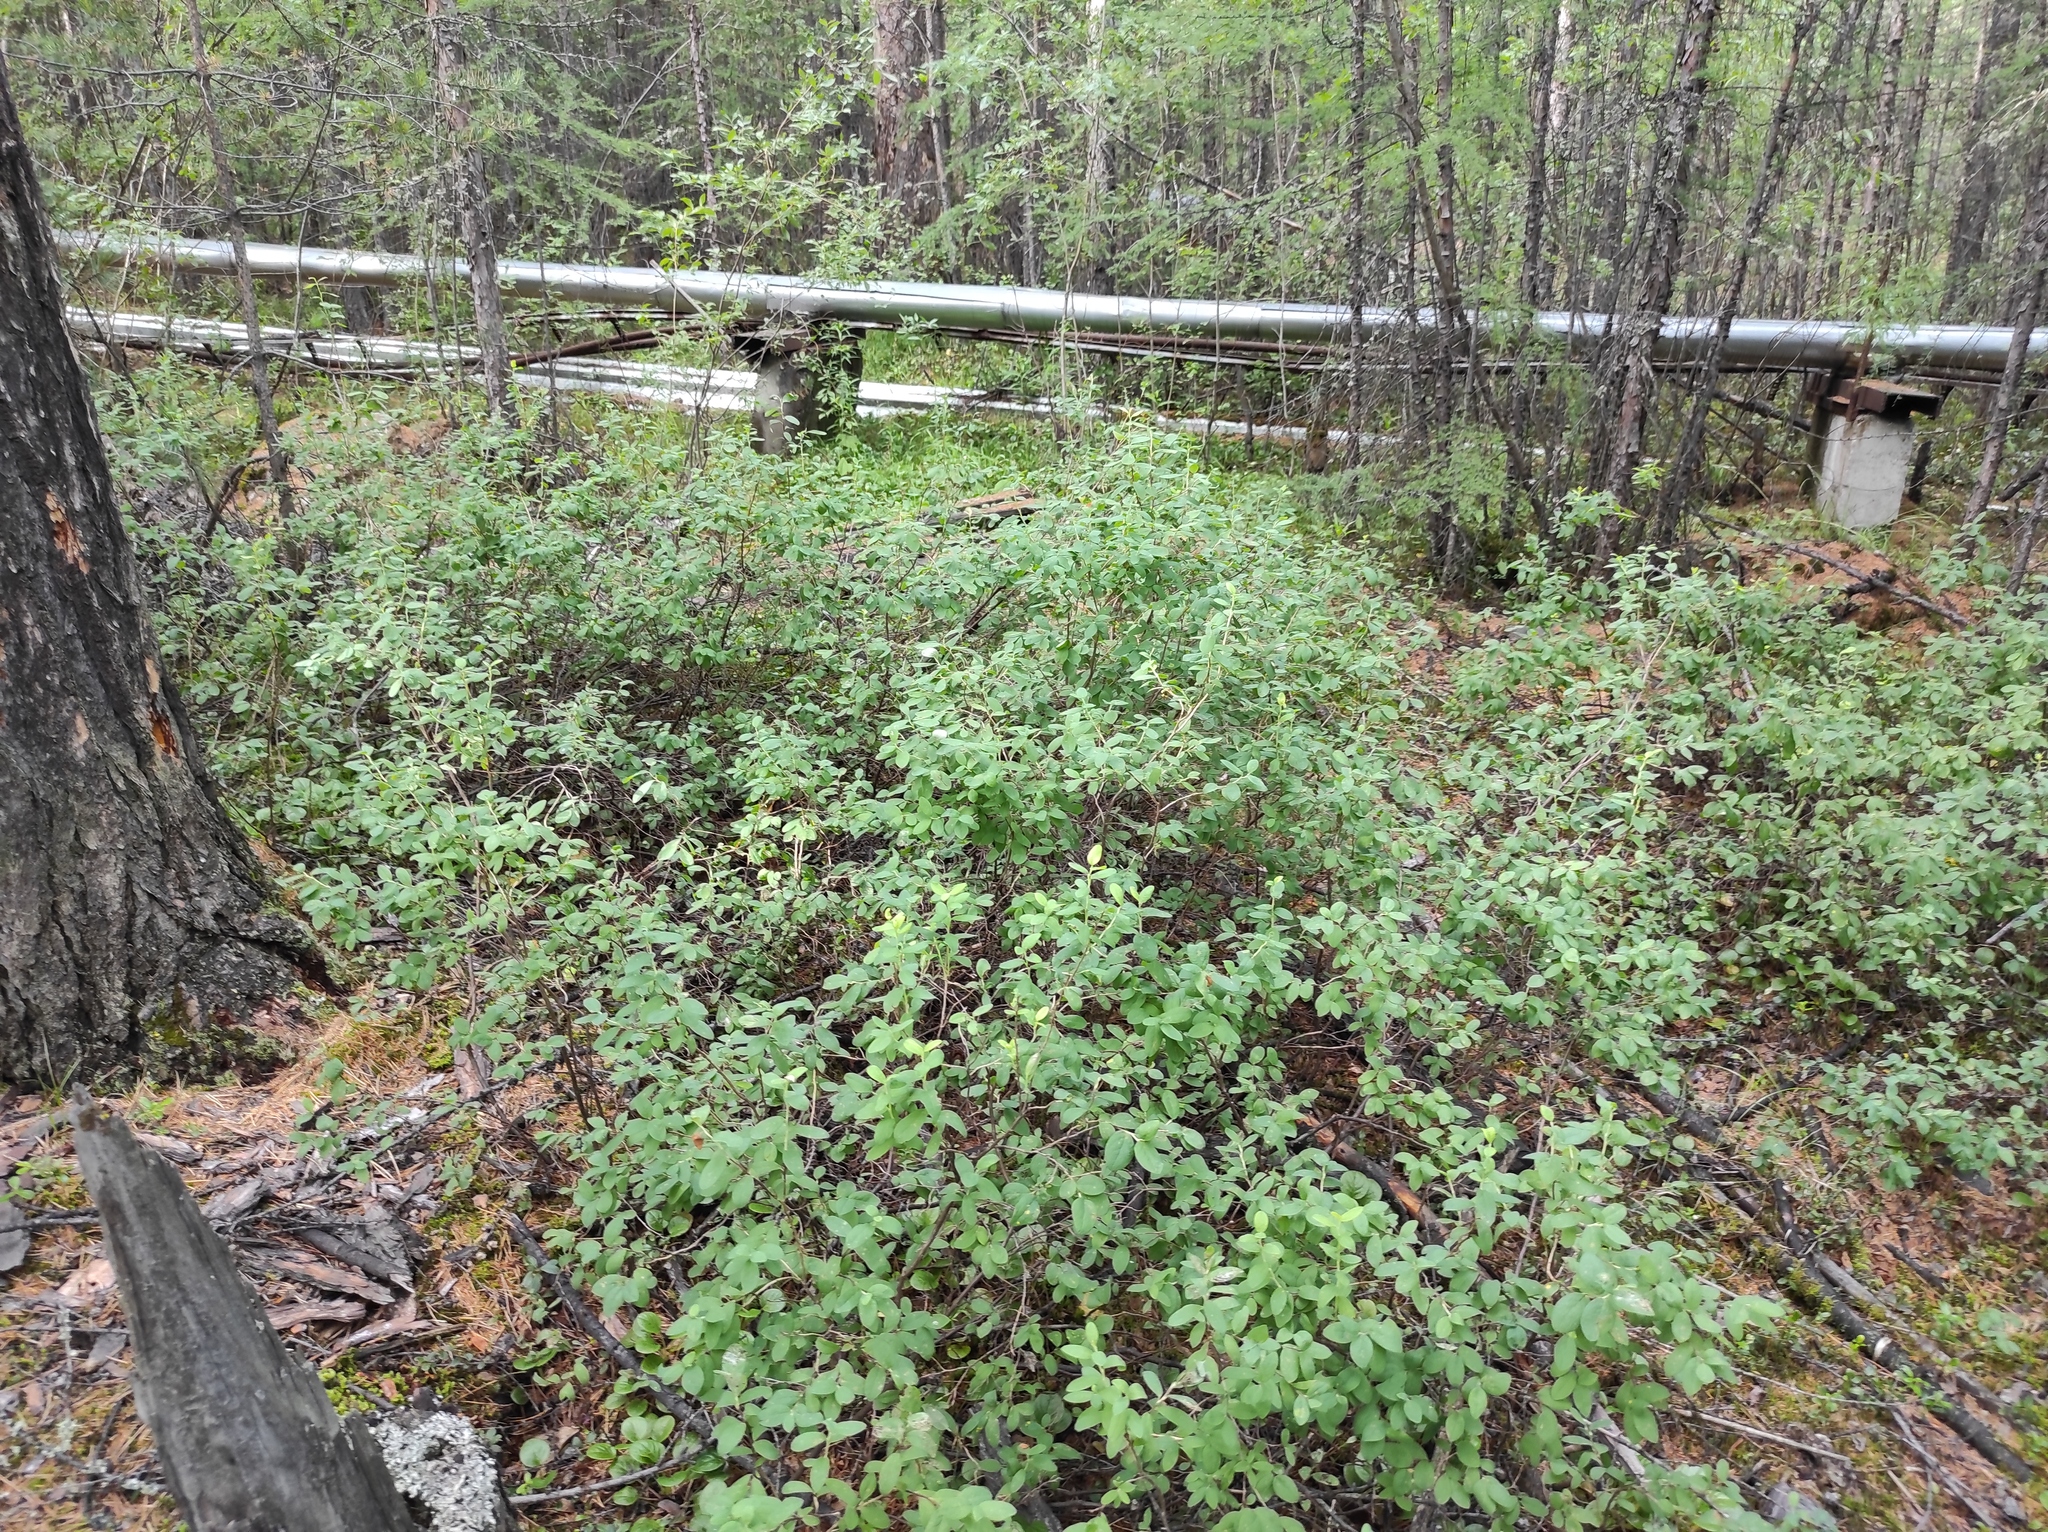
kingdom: Plantae
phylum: Tracheophyta
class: Magnoliopsida
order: Ericales
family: Ericaceae
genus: Vaccinium
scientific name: Vaccinium uliginosum
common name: Bog bilberry
